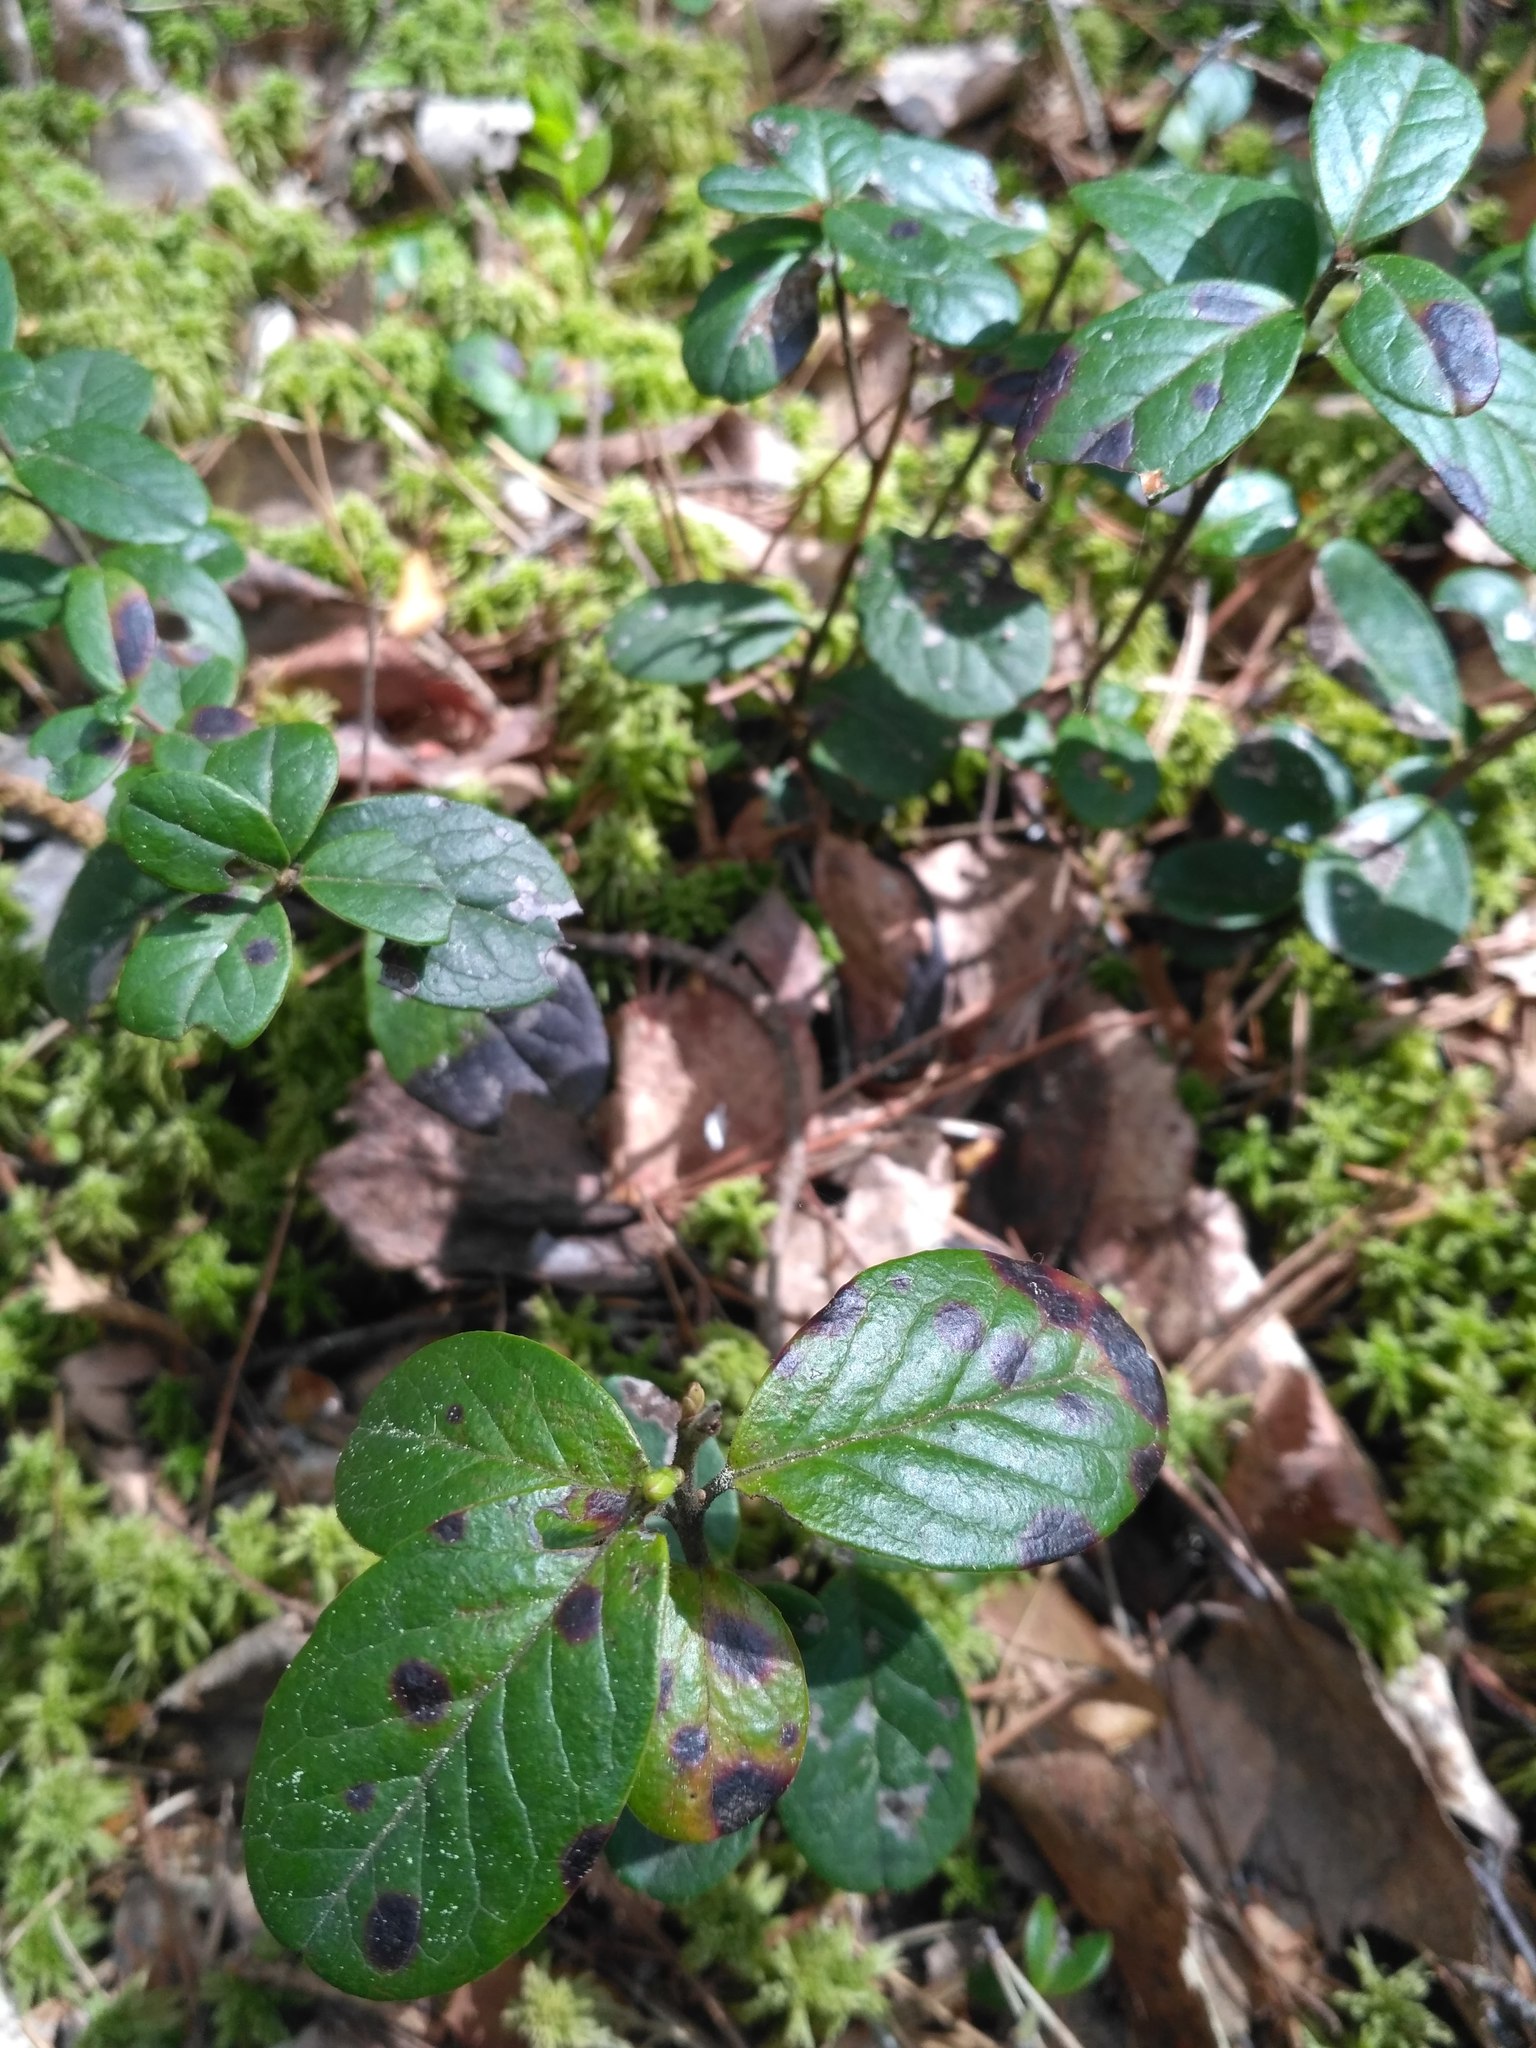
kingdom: Plantae
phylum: Tracheophyta
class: Magnoliopsida
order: Ericales
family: Ericaceae
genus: Vaccinium
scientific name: Vaccinium vitis-idaea
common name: Cowberry
